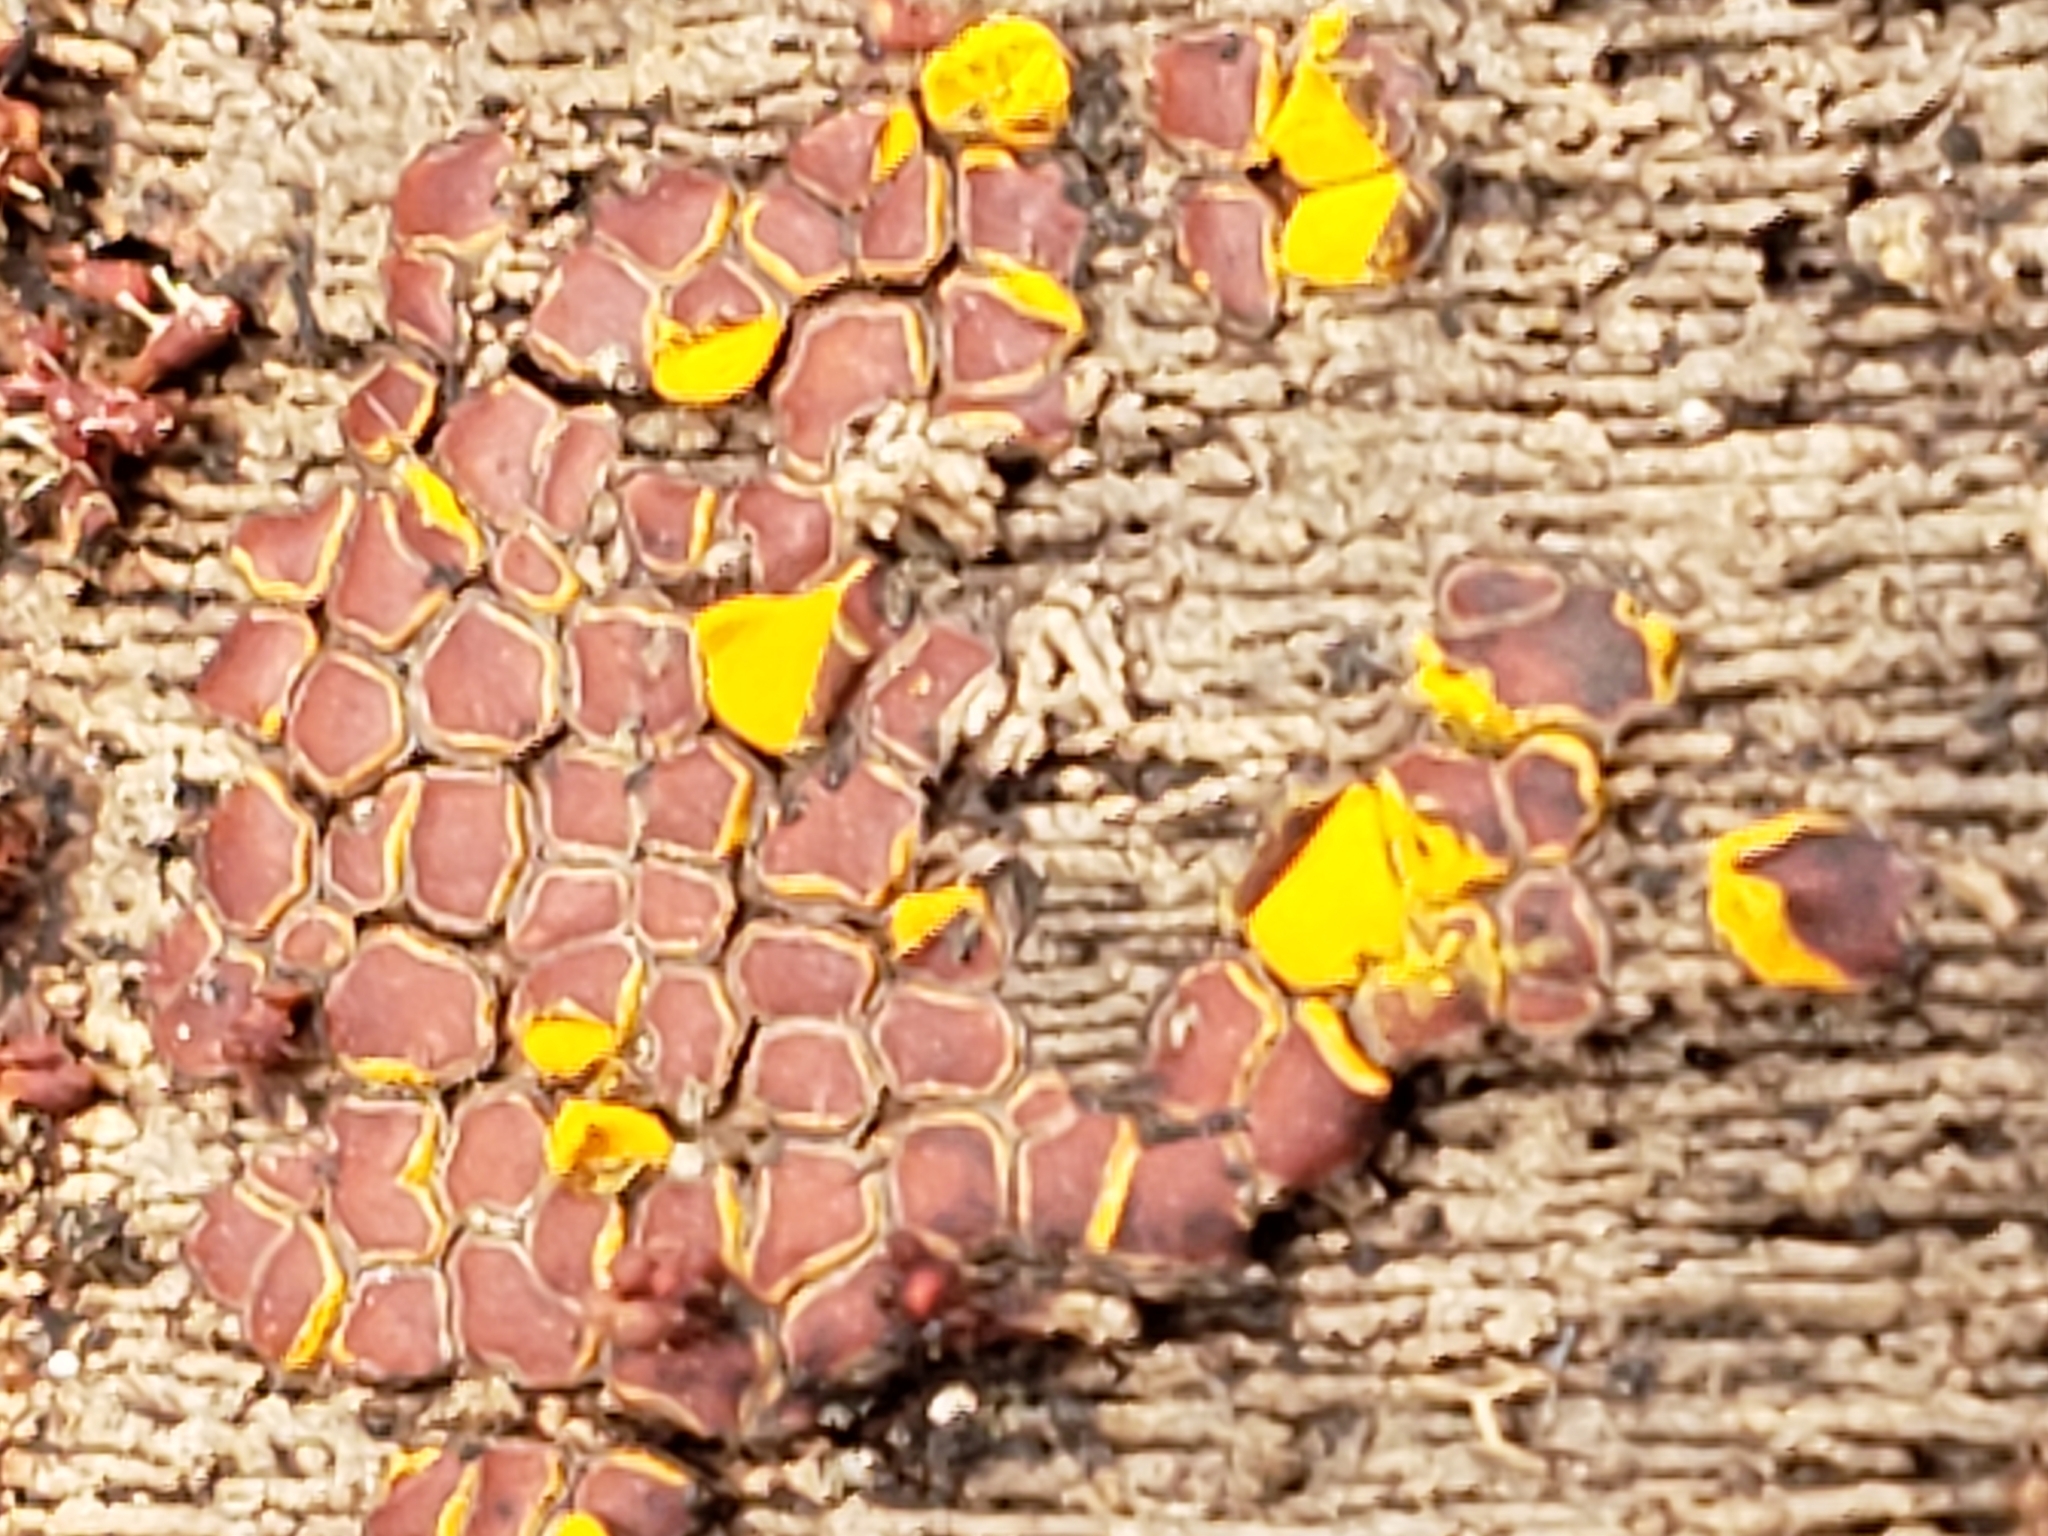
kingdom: Protozoa
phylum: Mycetozoa
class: Myxomycetes
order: Trichiales
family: Trichiaceae
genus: Perichaena
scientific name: Perichaena depressa
